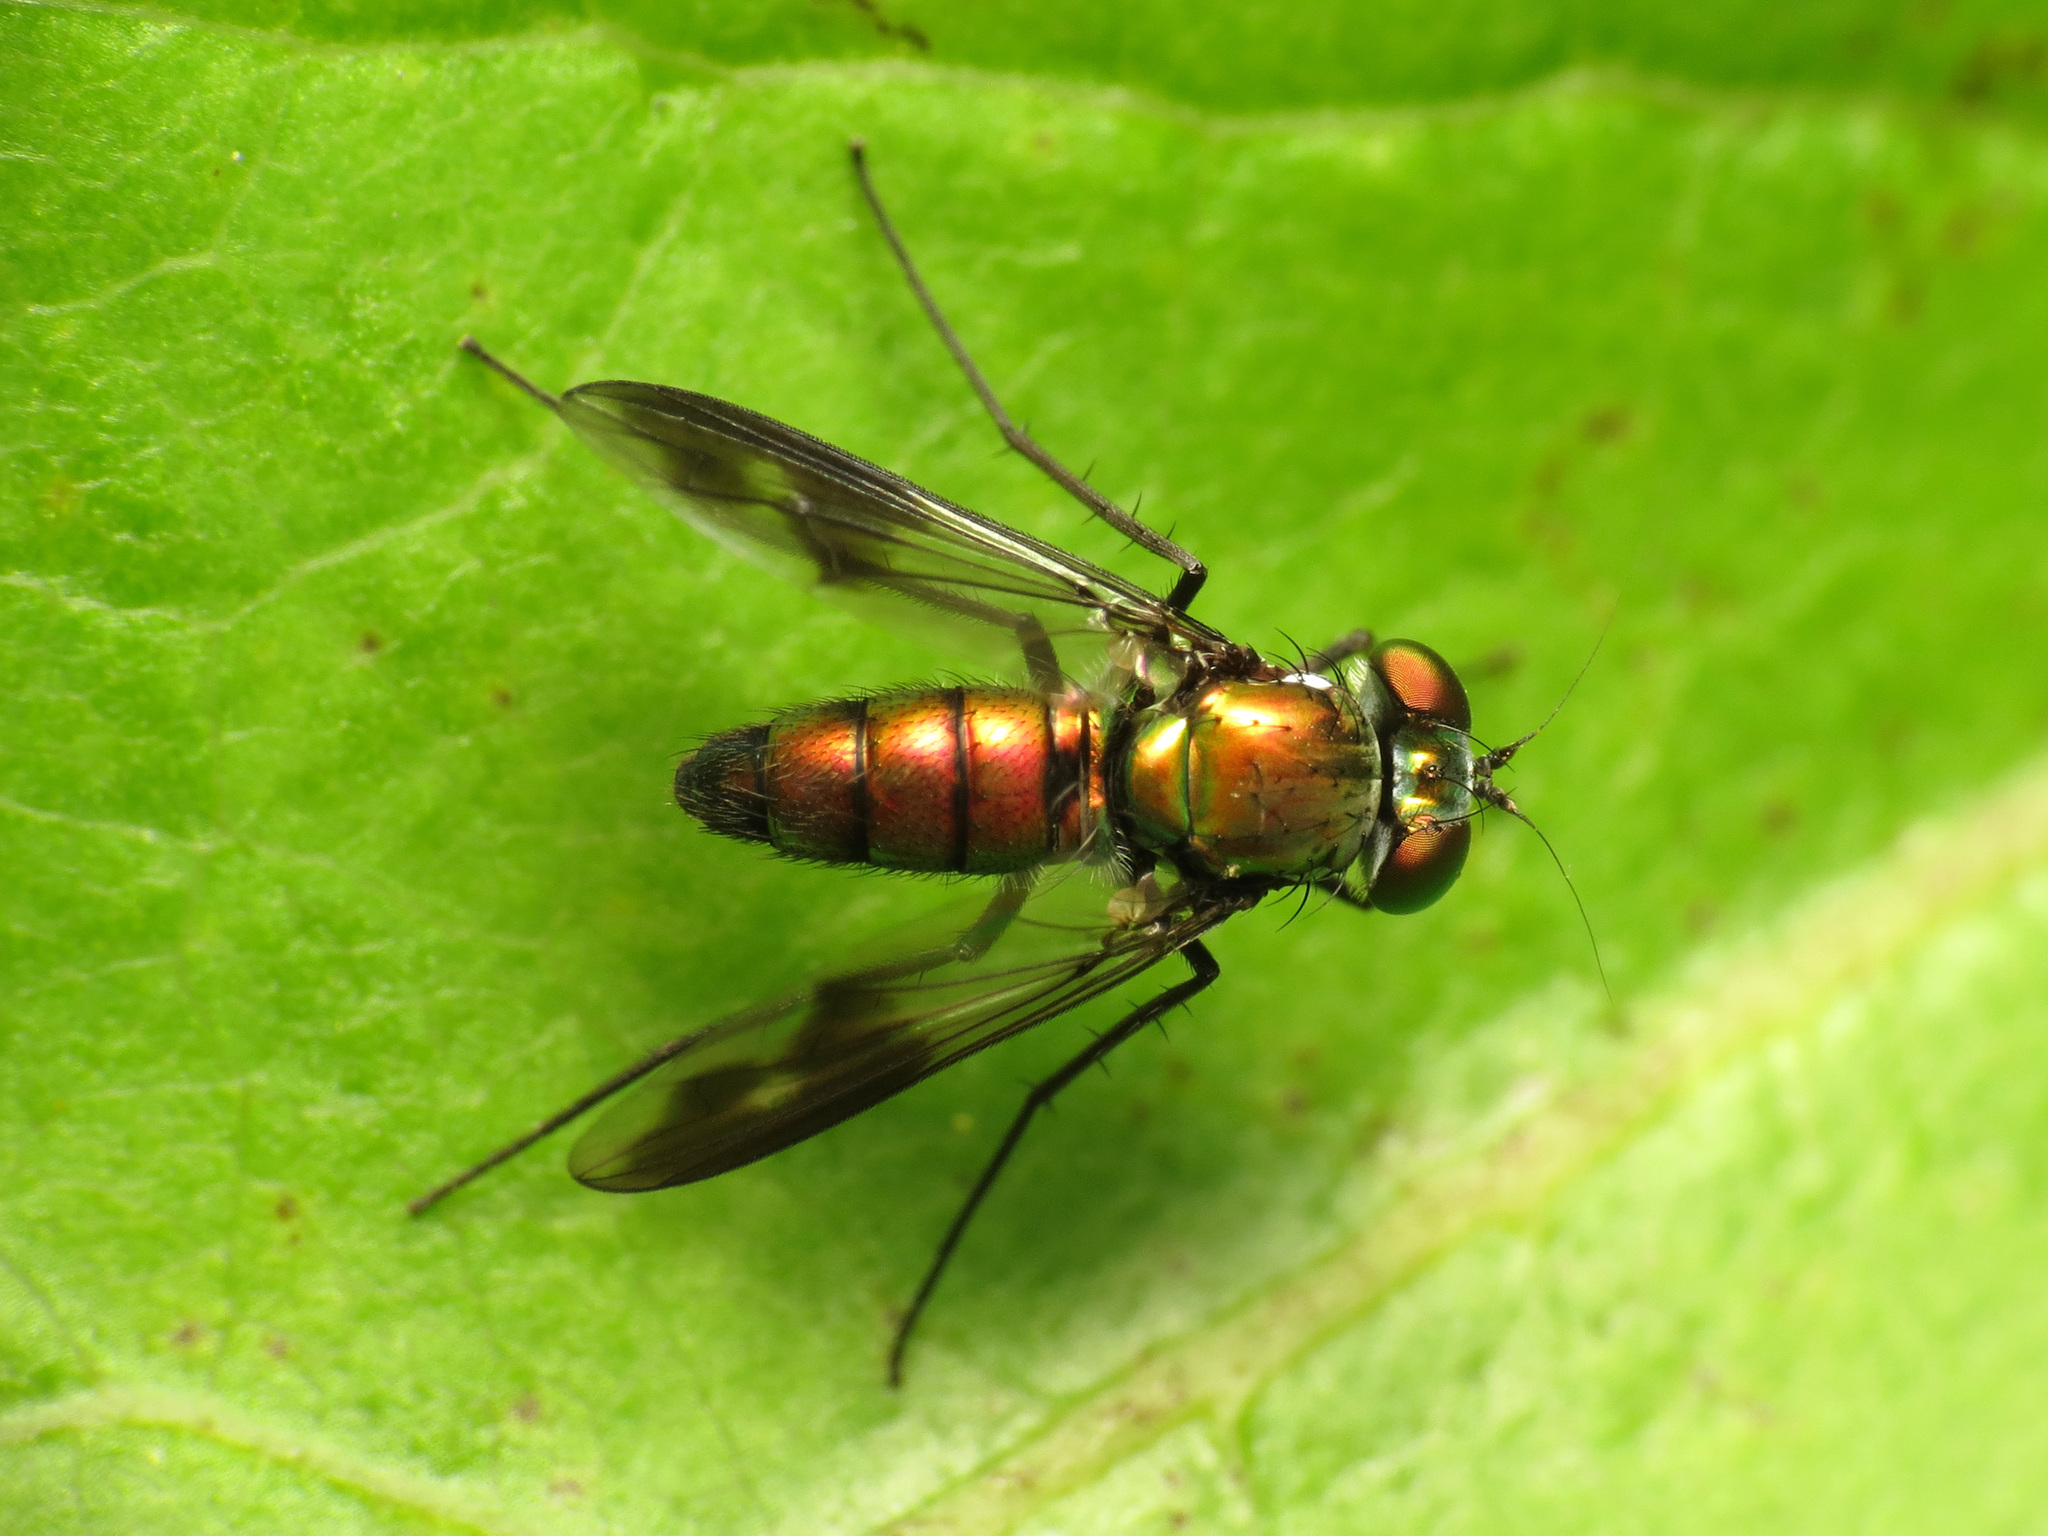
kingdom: Animalia
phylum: Arthropoda
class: Insecta
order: Diptera
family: Dolichopodidae
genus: Condylostylus
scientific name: Condylostylus patibulatus
